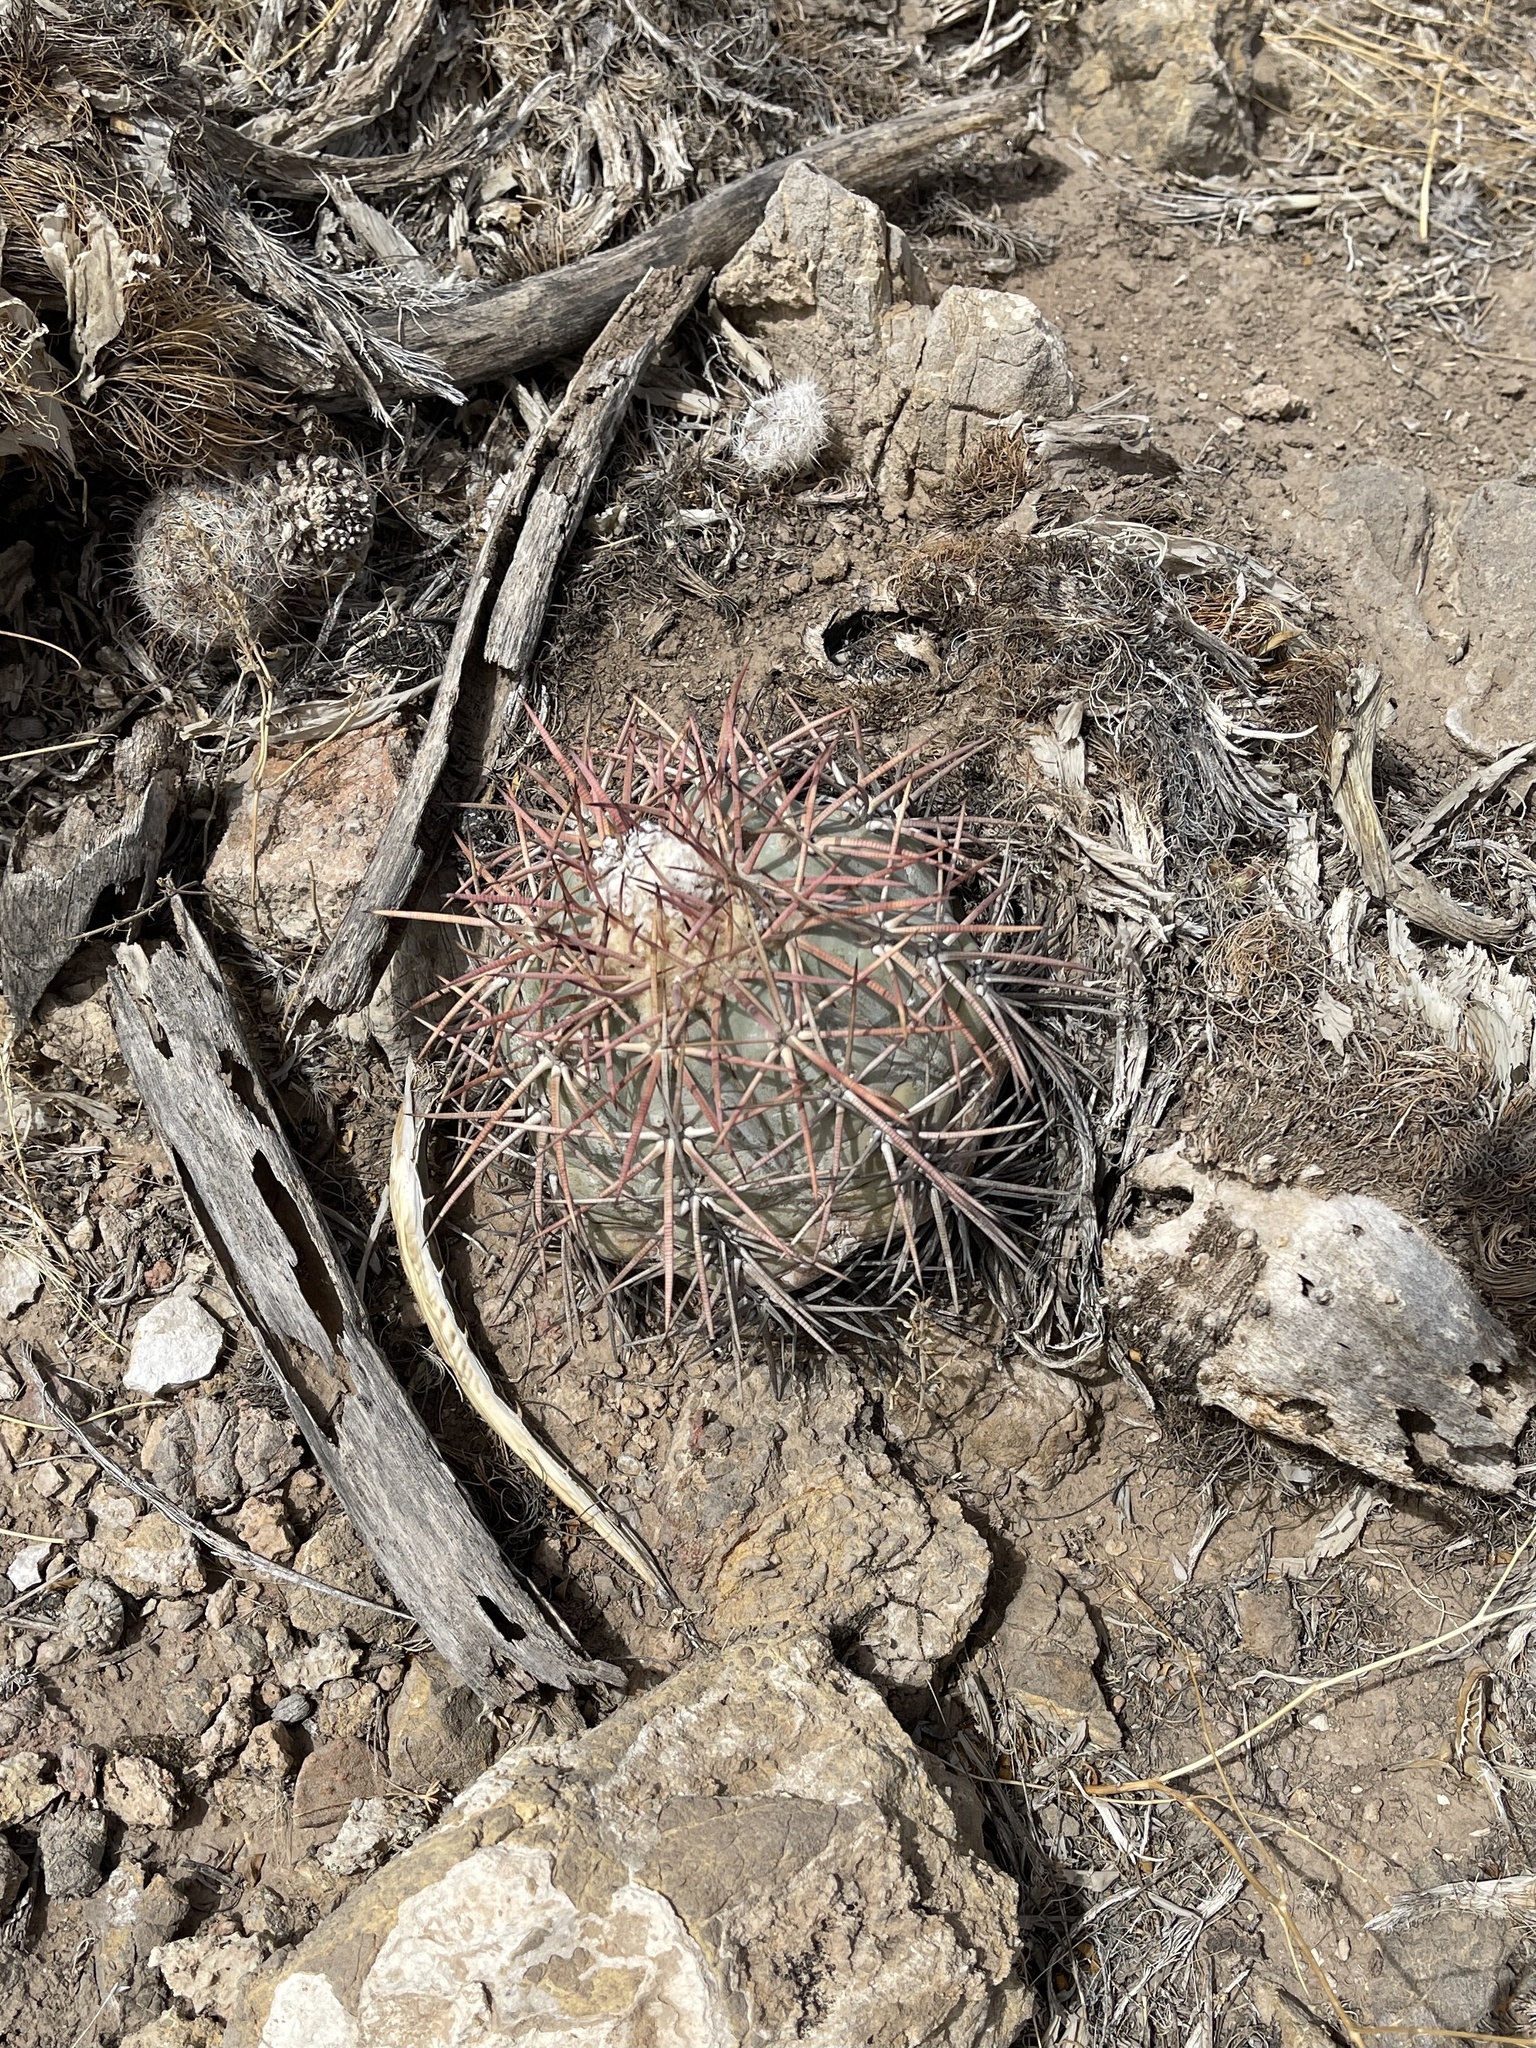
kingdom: Plantae
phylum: Tracheophyta
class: Magnoliopsida
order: Caryophyllales
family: Cactaceae
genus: Echinocactus
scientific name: Echinocactus horizonthalonius
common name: Devilshead
